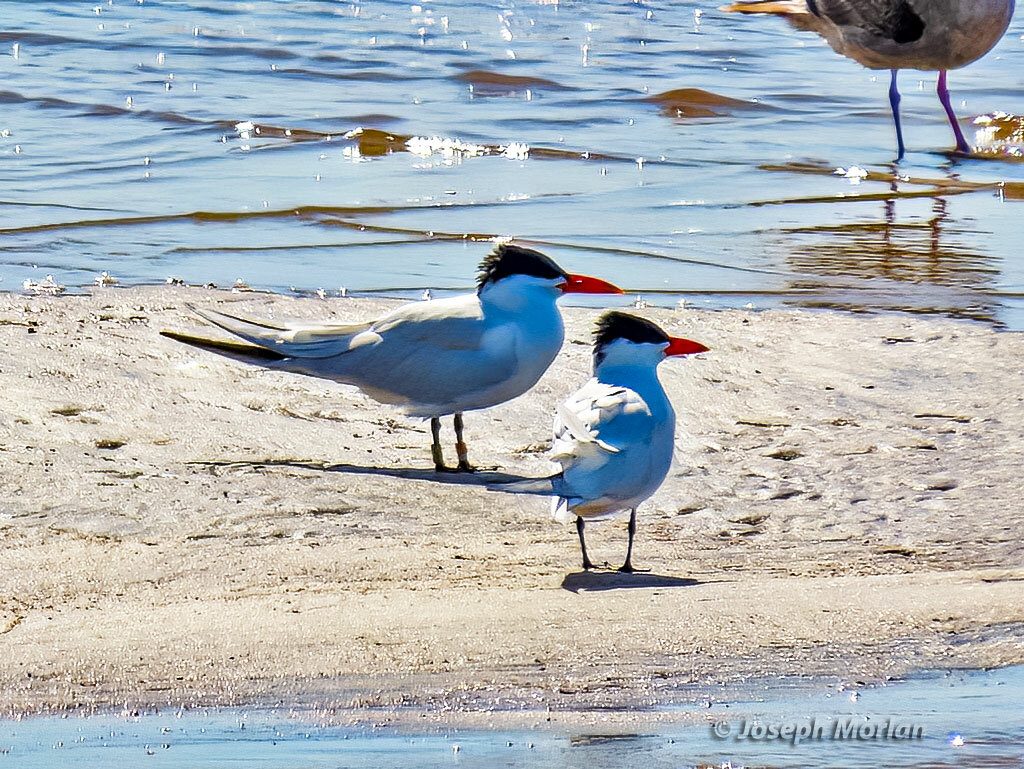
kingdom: Animalia
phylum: Chordata
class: Aves
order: Charadriiformes
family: Laridae
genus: Hydroprogne
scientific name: Hydroprogne caspia
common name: Caspian tern
